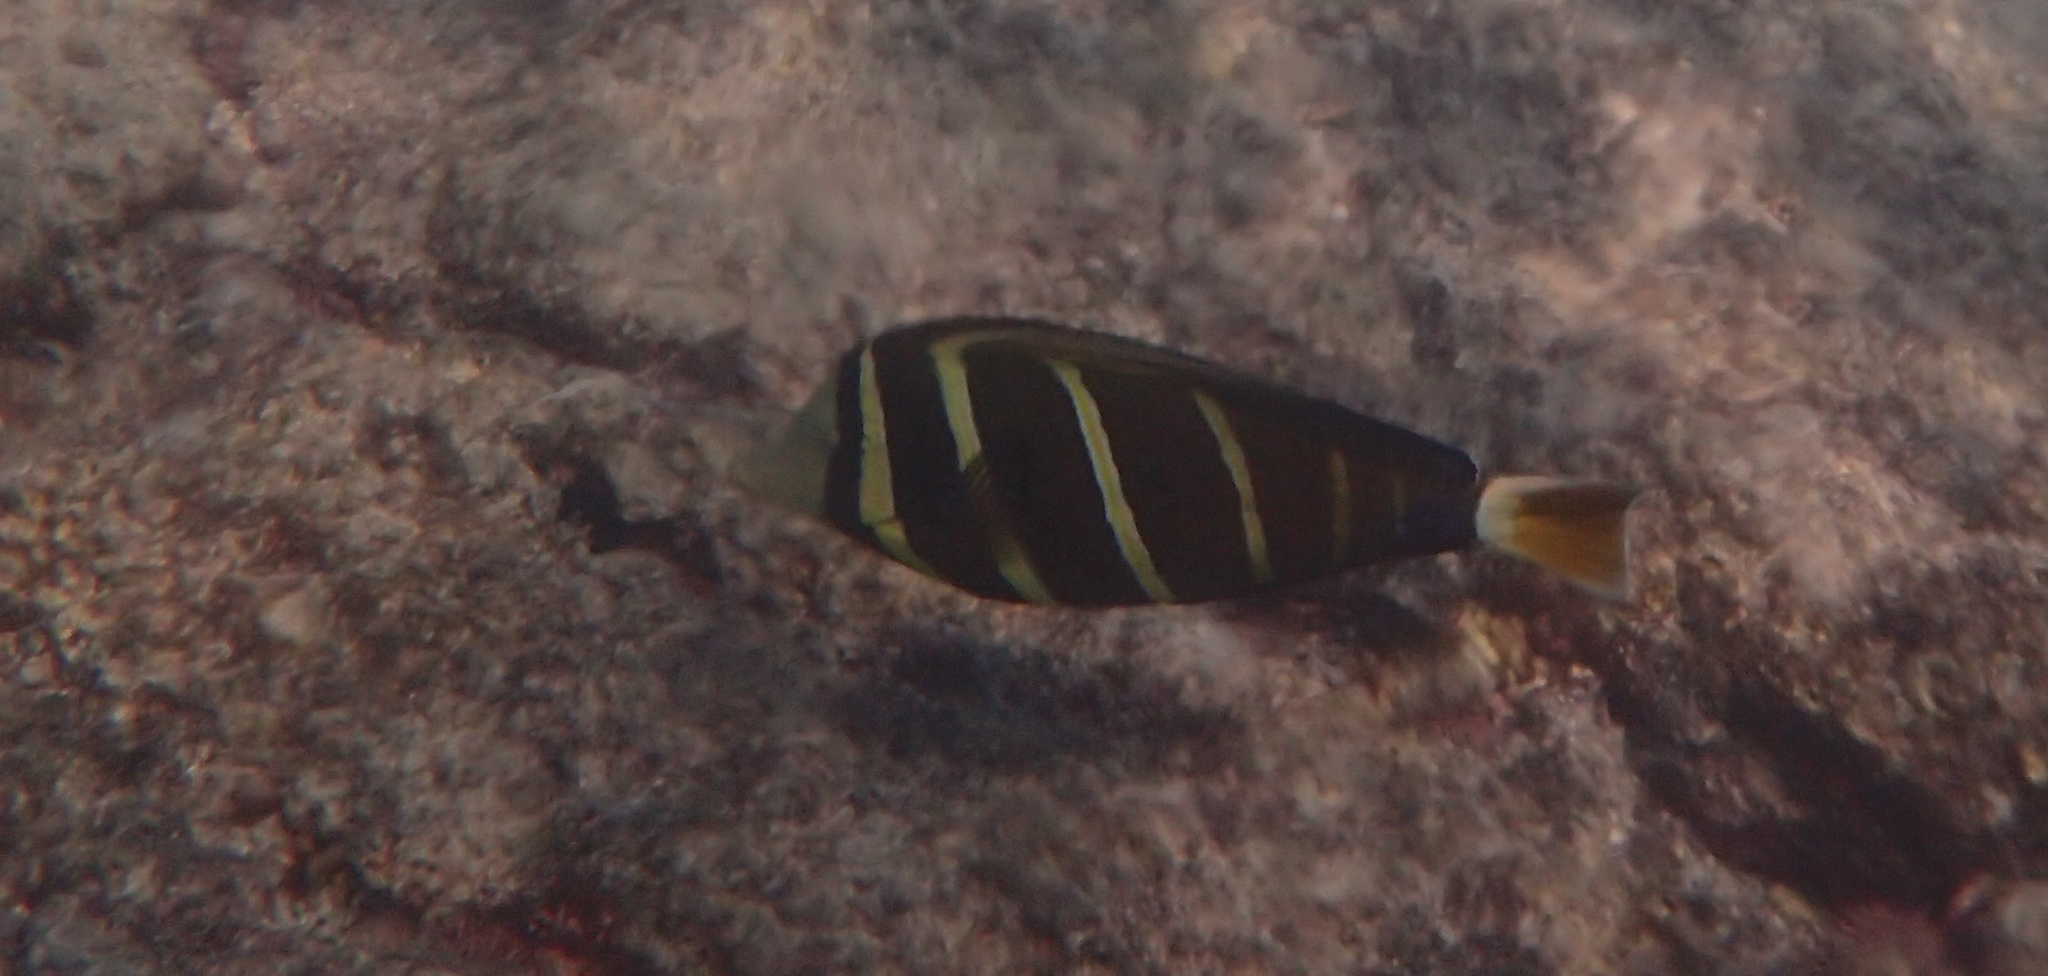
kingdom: Animalia
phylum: Chordata
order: Perciformes
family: Acanthuridae
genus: Zebrasoma
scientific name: Zebrasoma veliferum
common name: Sailfin surgeonfish
